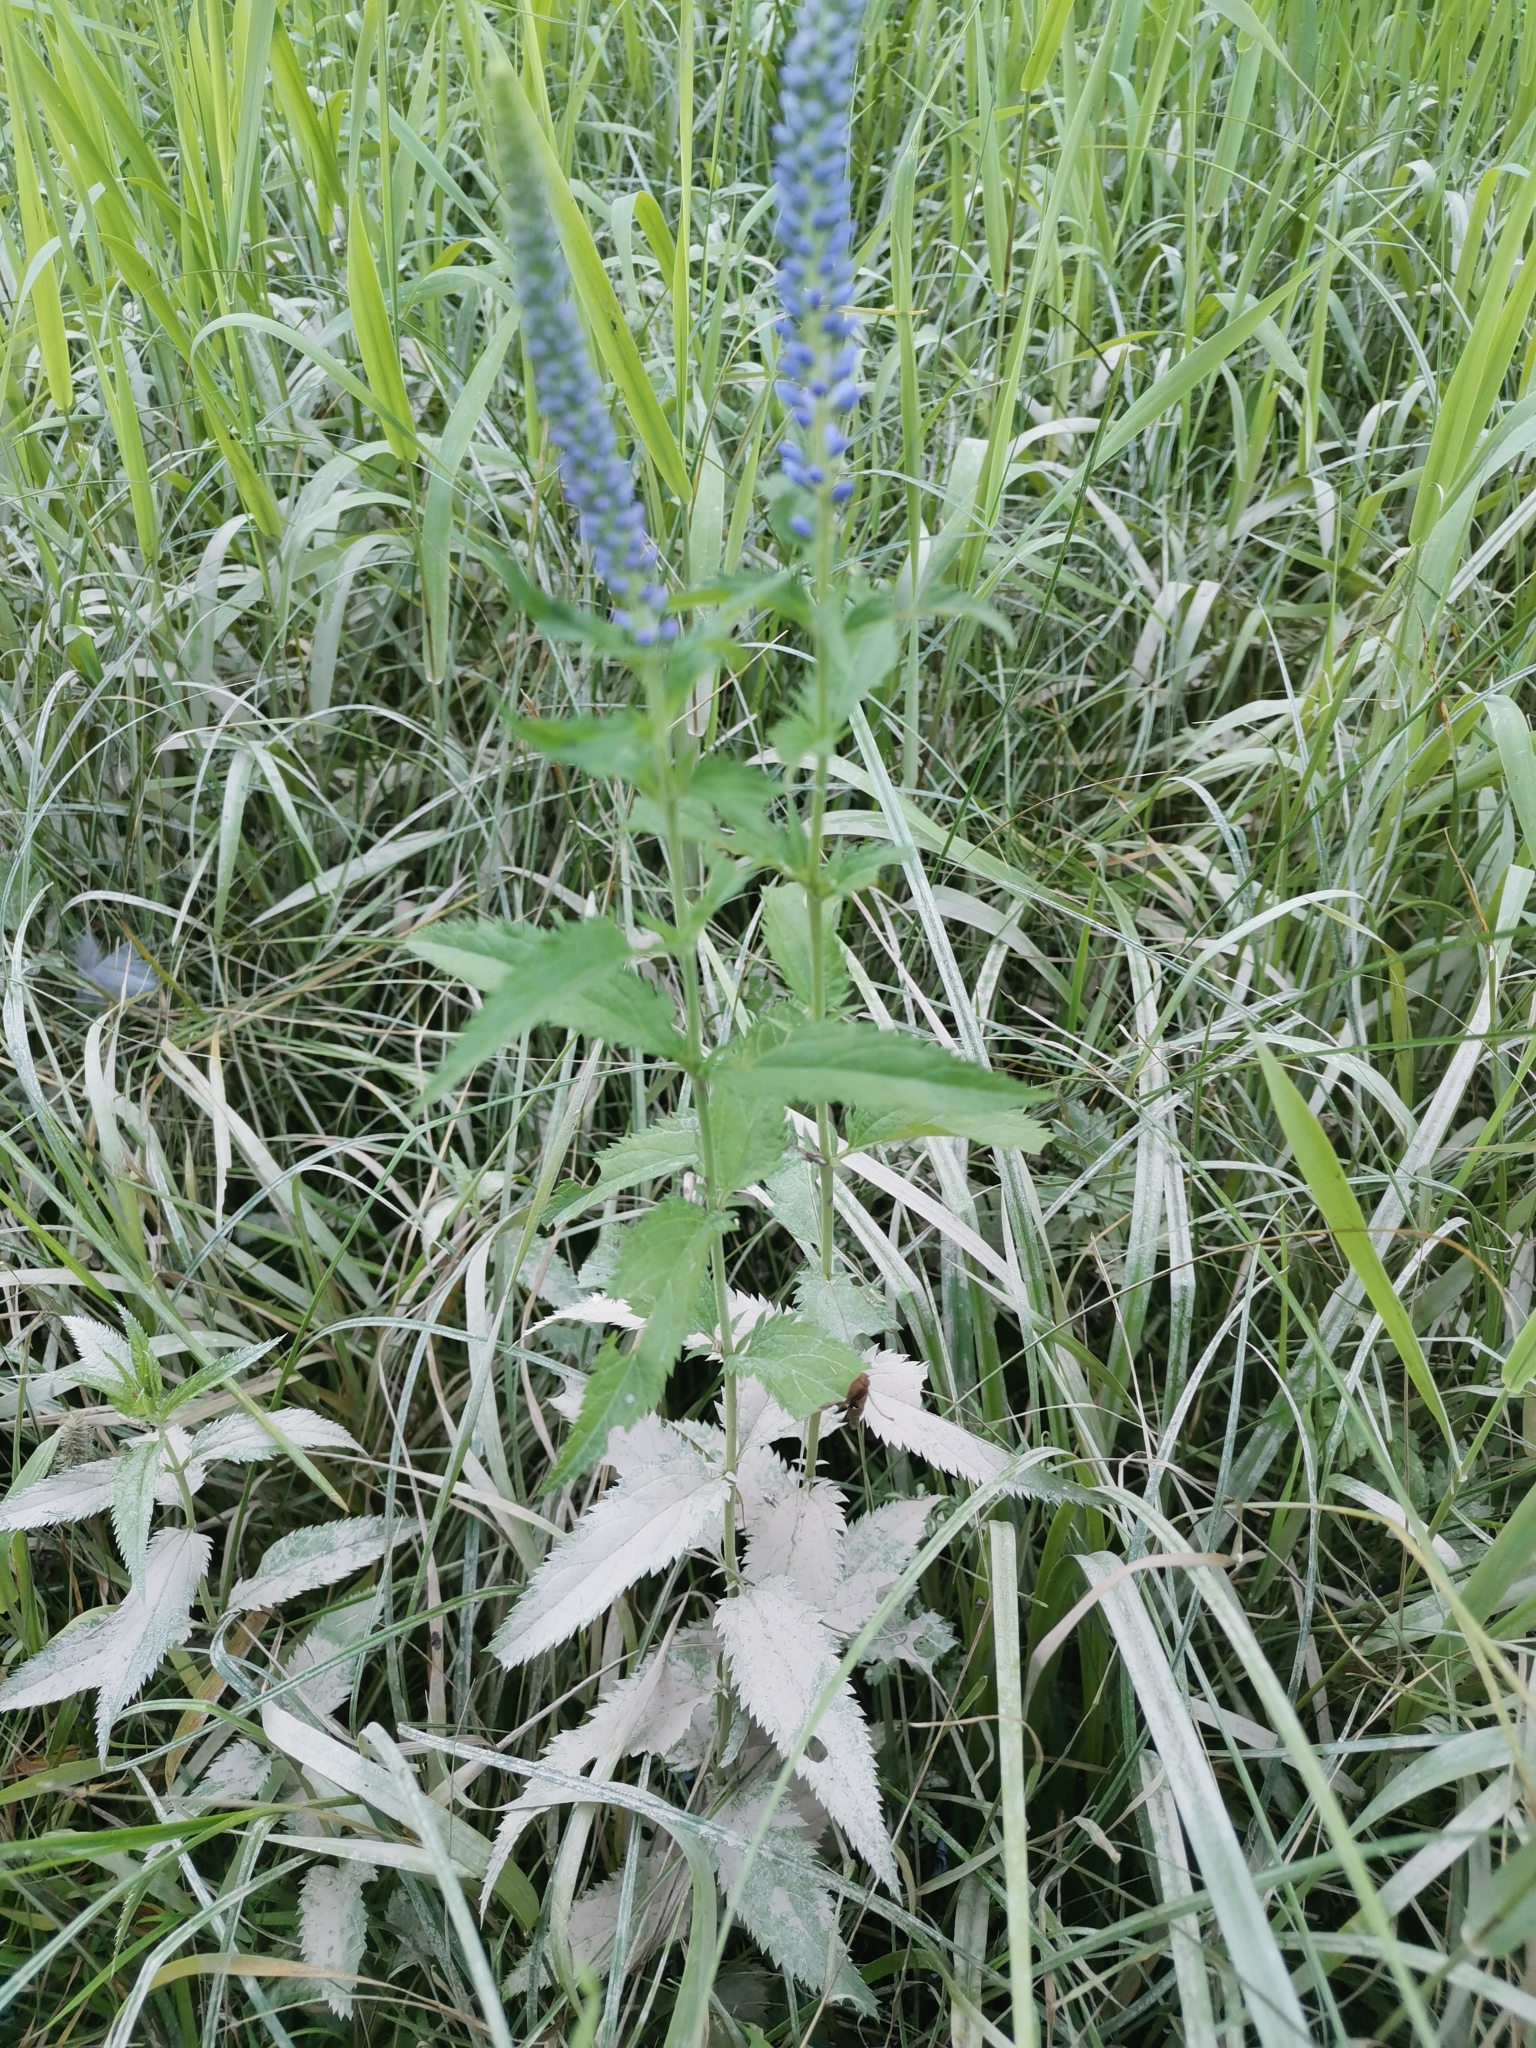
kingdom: Plantae
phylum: Tracheophyta
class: Magnoliopsida
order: Lamiales
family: Plantaginaceae
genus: Veronica
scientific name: Veronica longifolia
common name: Garden speedwell
